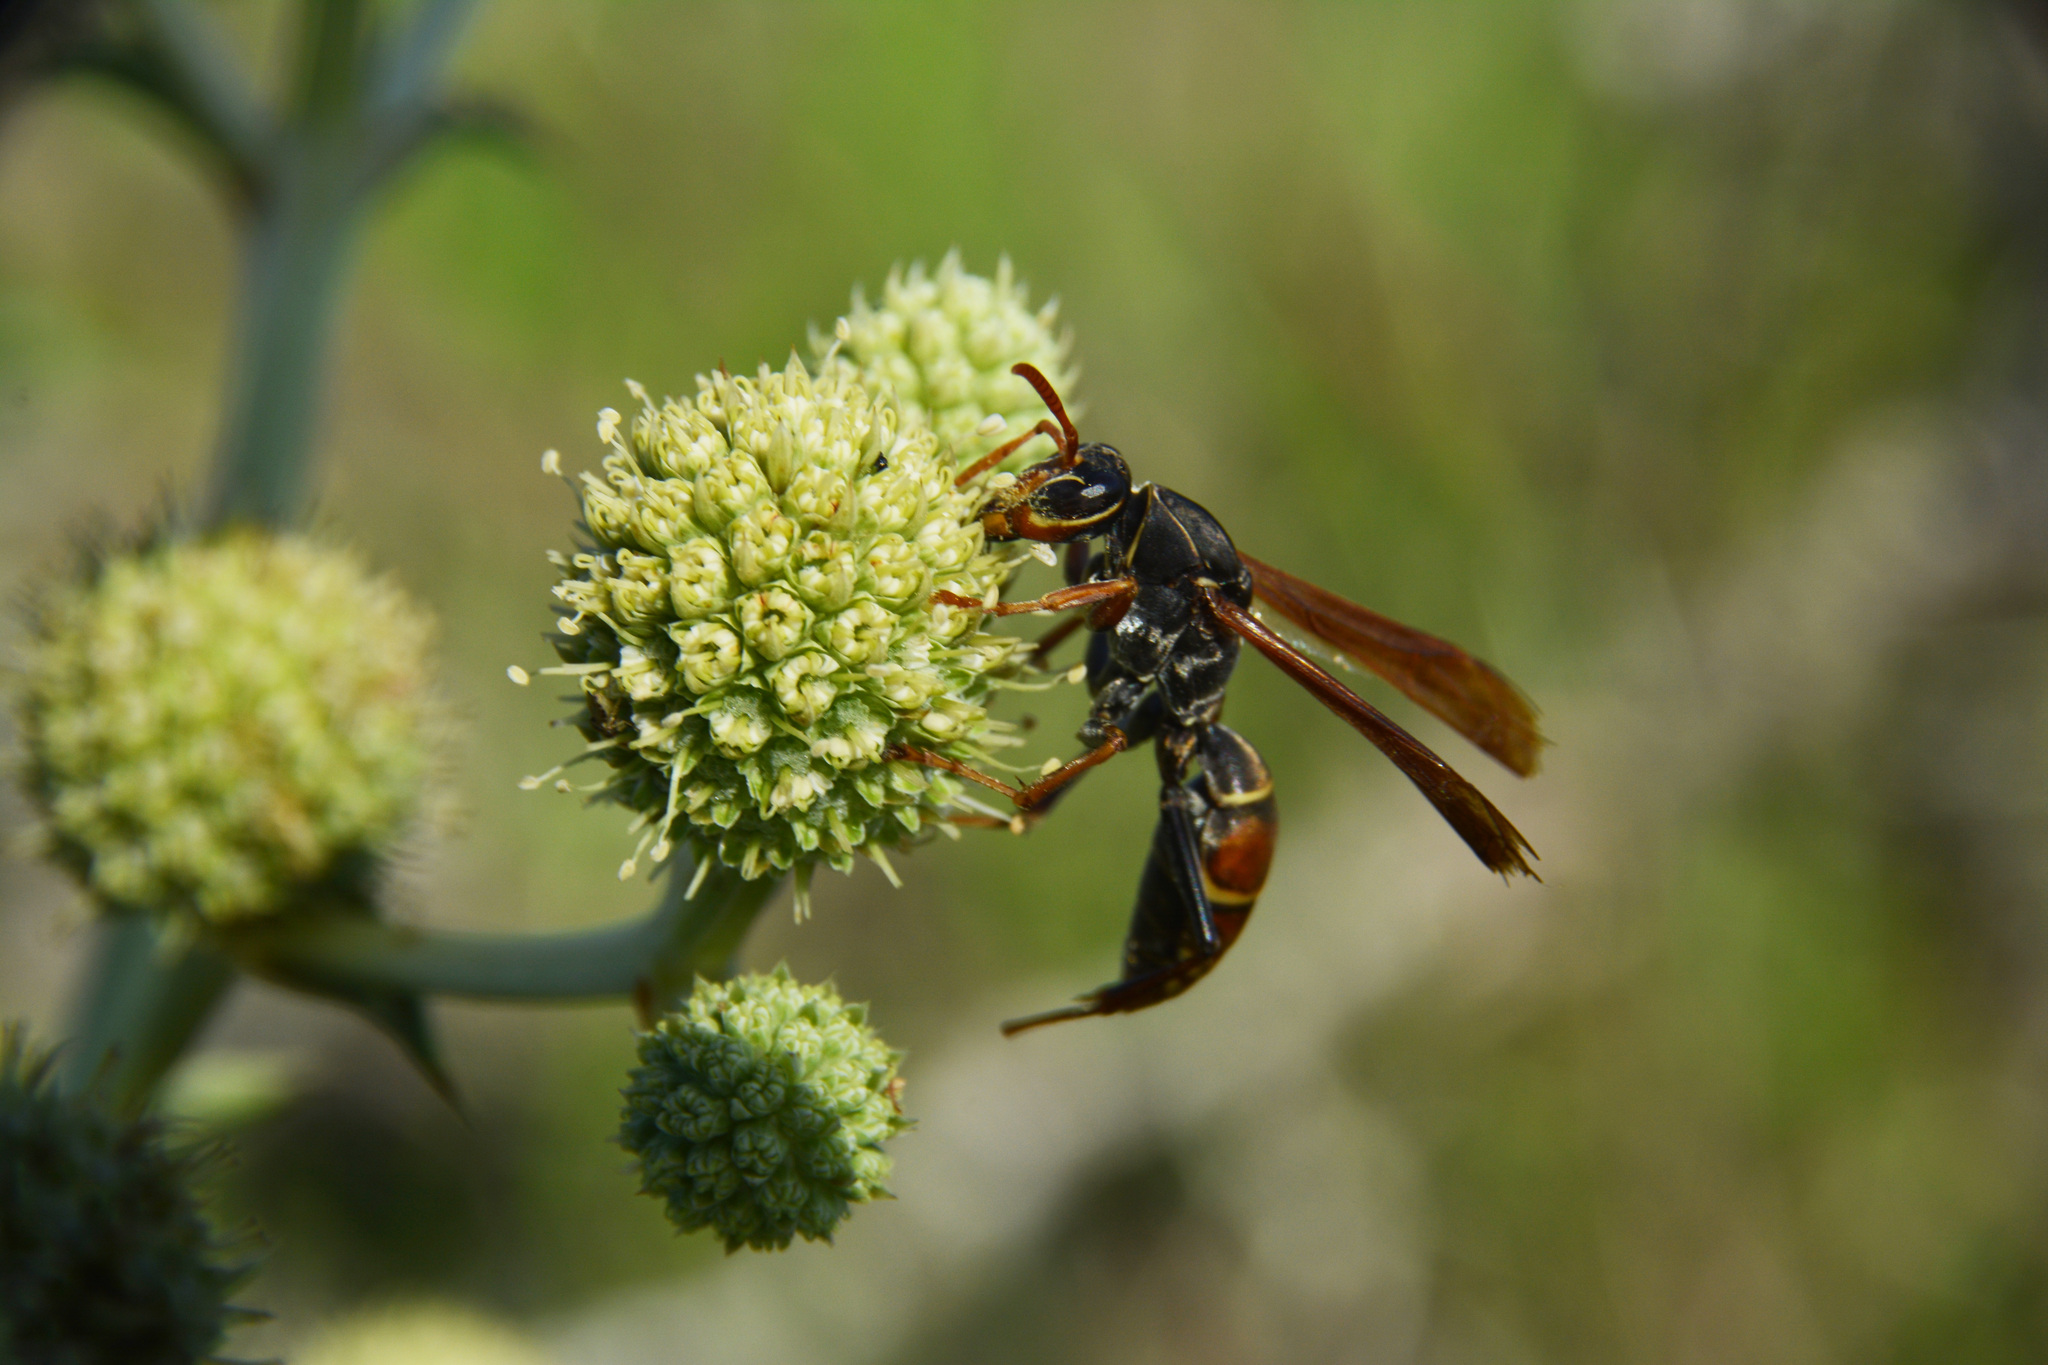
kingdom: Animalia
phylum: Arthropoda
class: Insecta
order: Hymenoptera
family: Eumenidae
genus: Polistes
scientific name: Polistes billardieri
